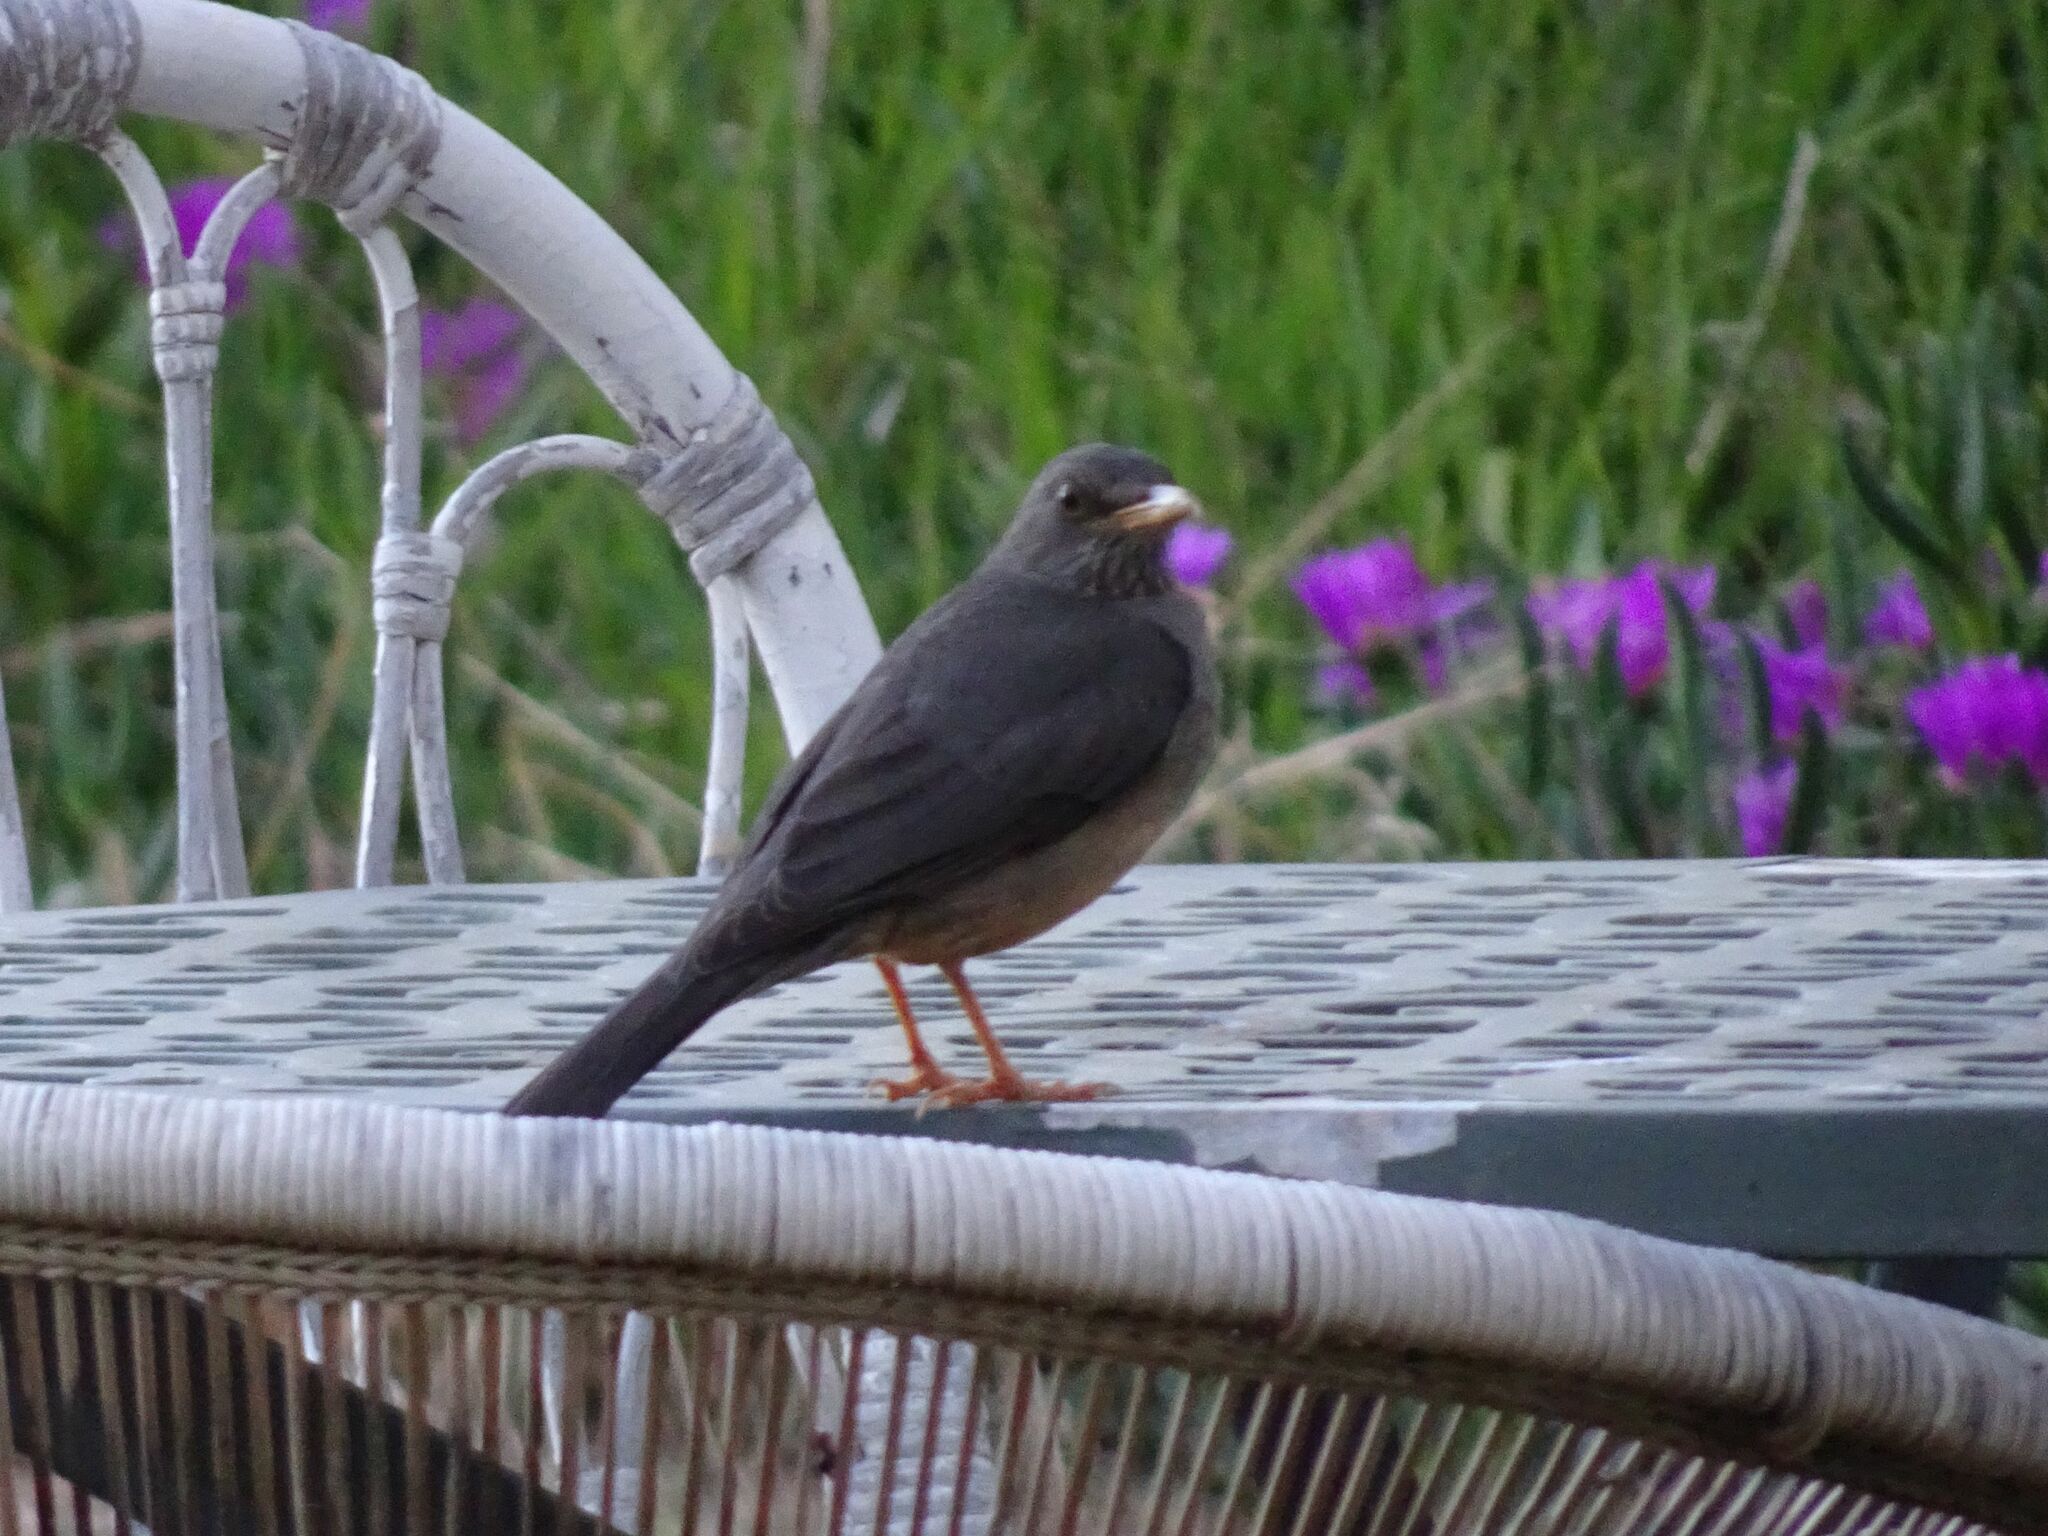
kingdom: Animalia
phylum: Chordata
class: Aves
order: Passeriformes
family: Turdidae
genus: Turdus
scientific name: Turdus smithi
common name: Karoo thrush
